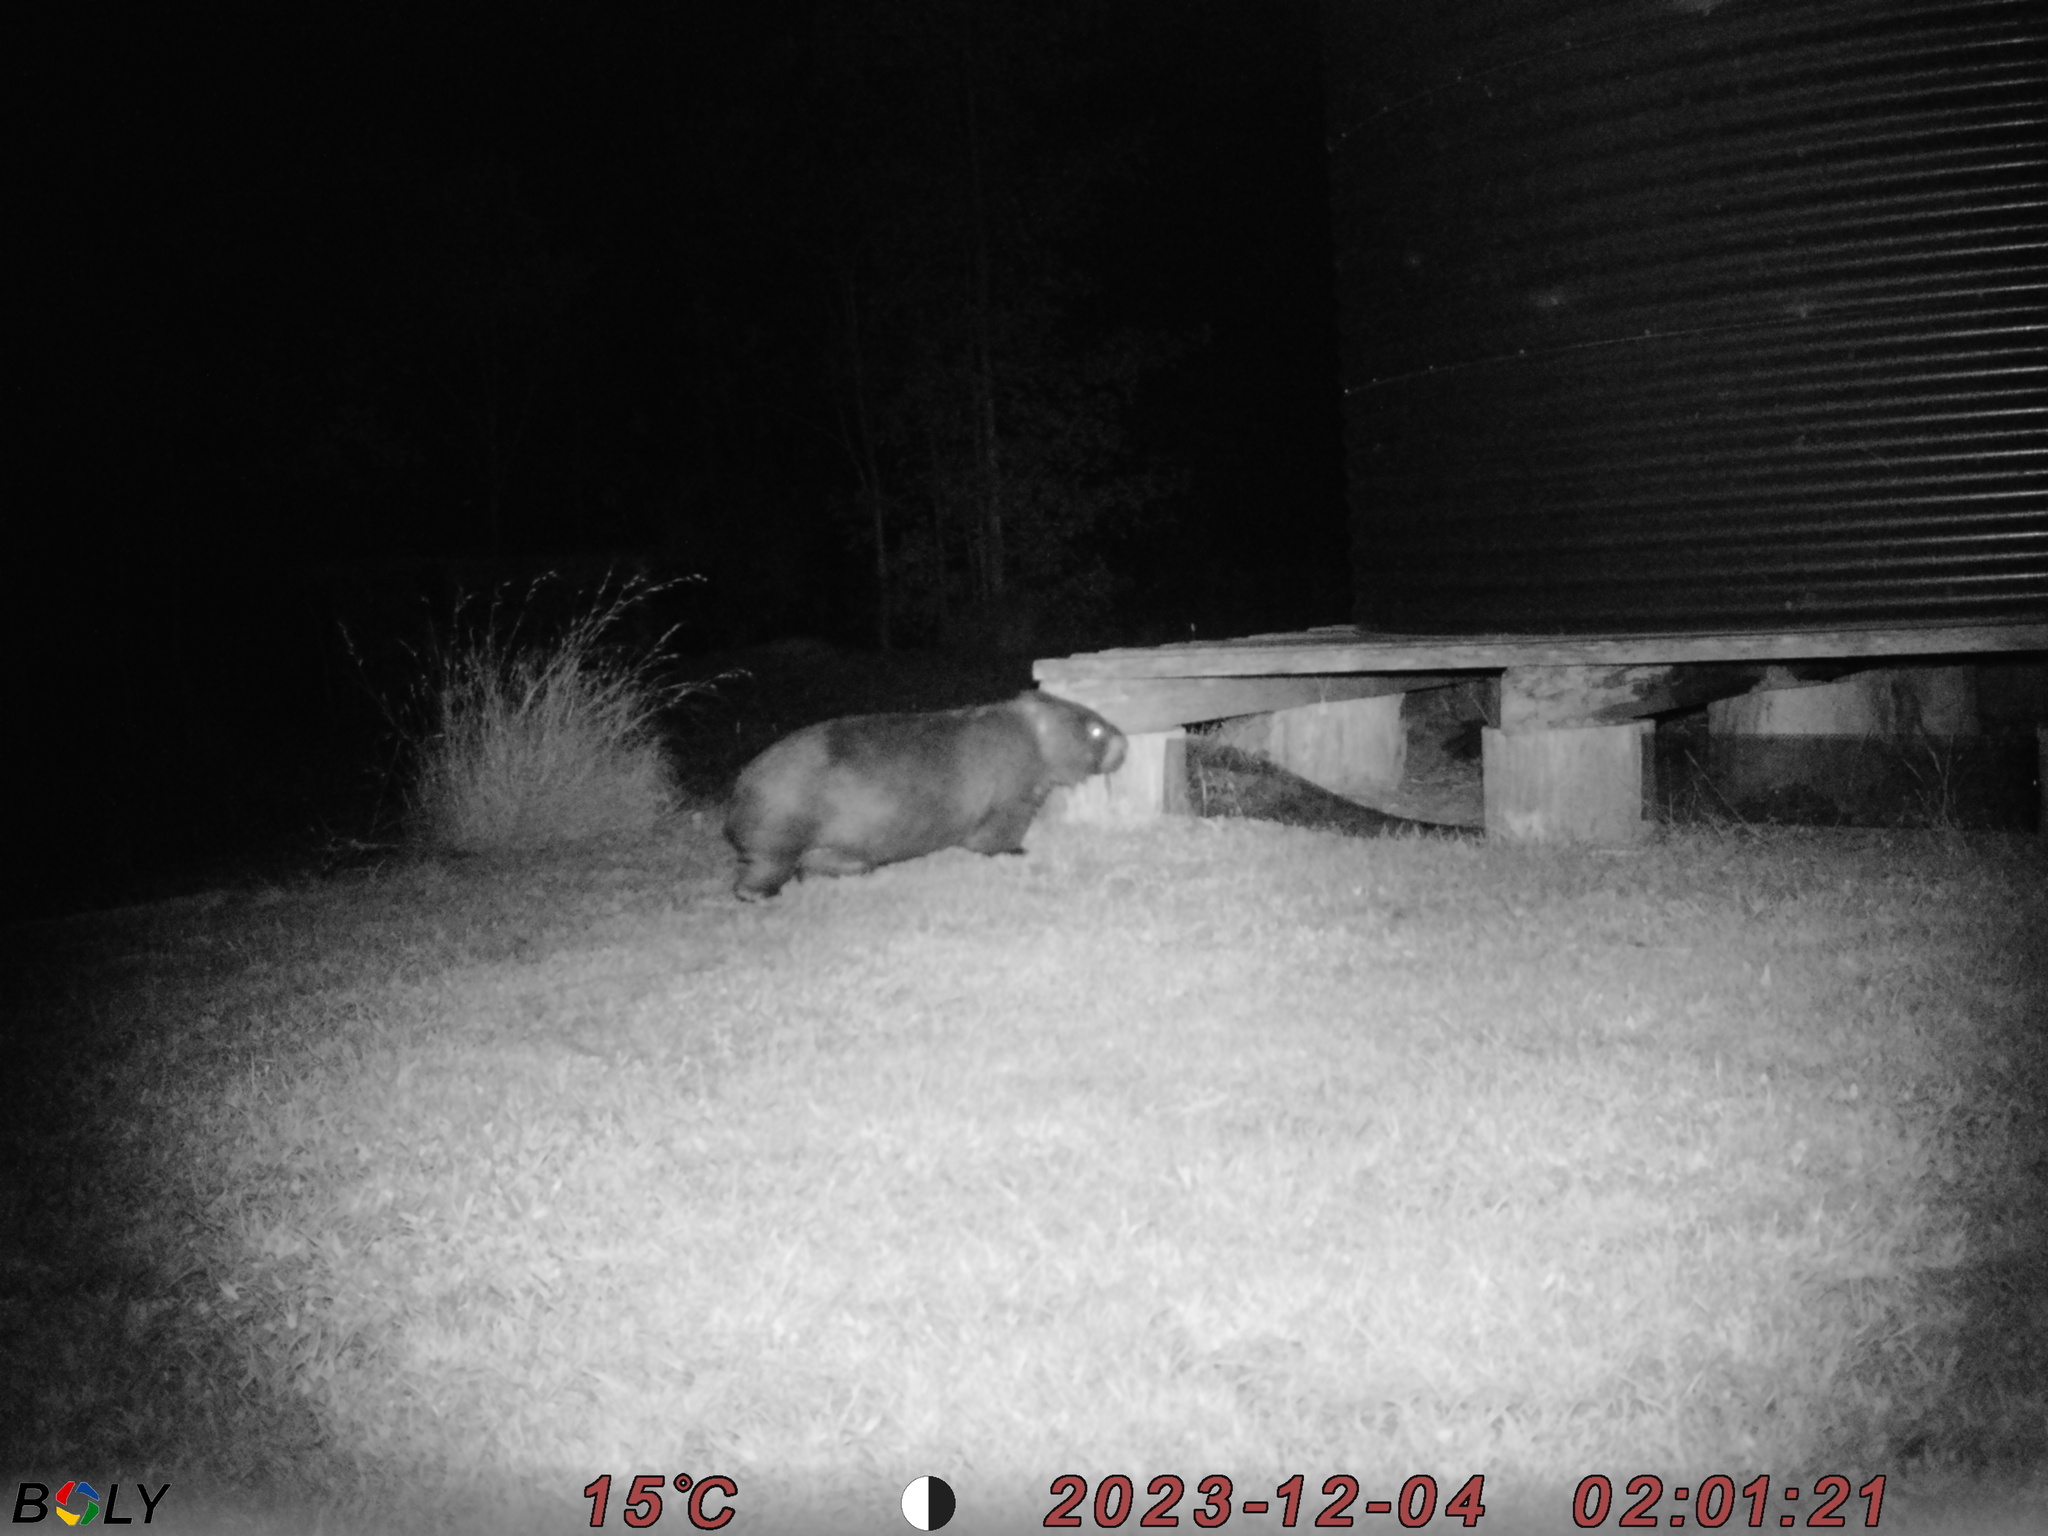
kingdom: Animalia
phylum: Chordata
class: Mammalia
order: Diprotodontia
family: Vombatidae
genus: Vombatus
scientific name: Vombatus ursinus
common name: Common wombat
